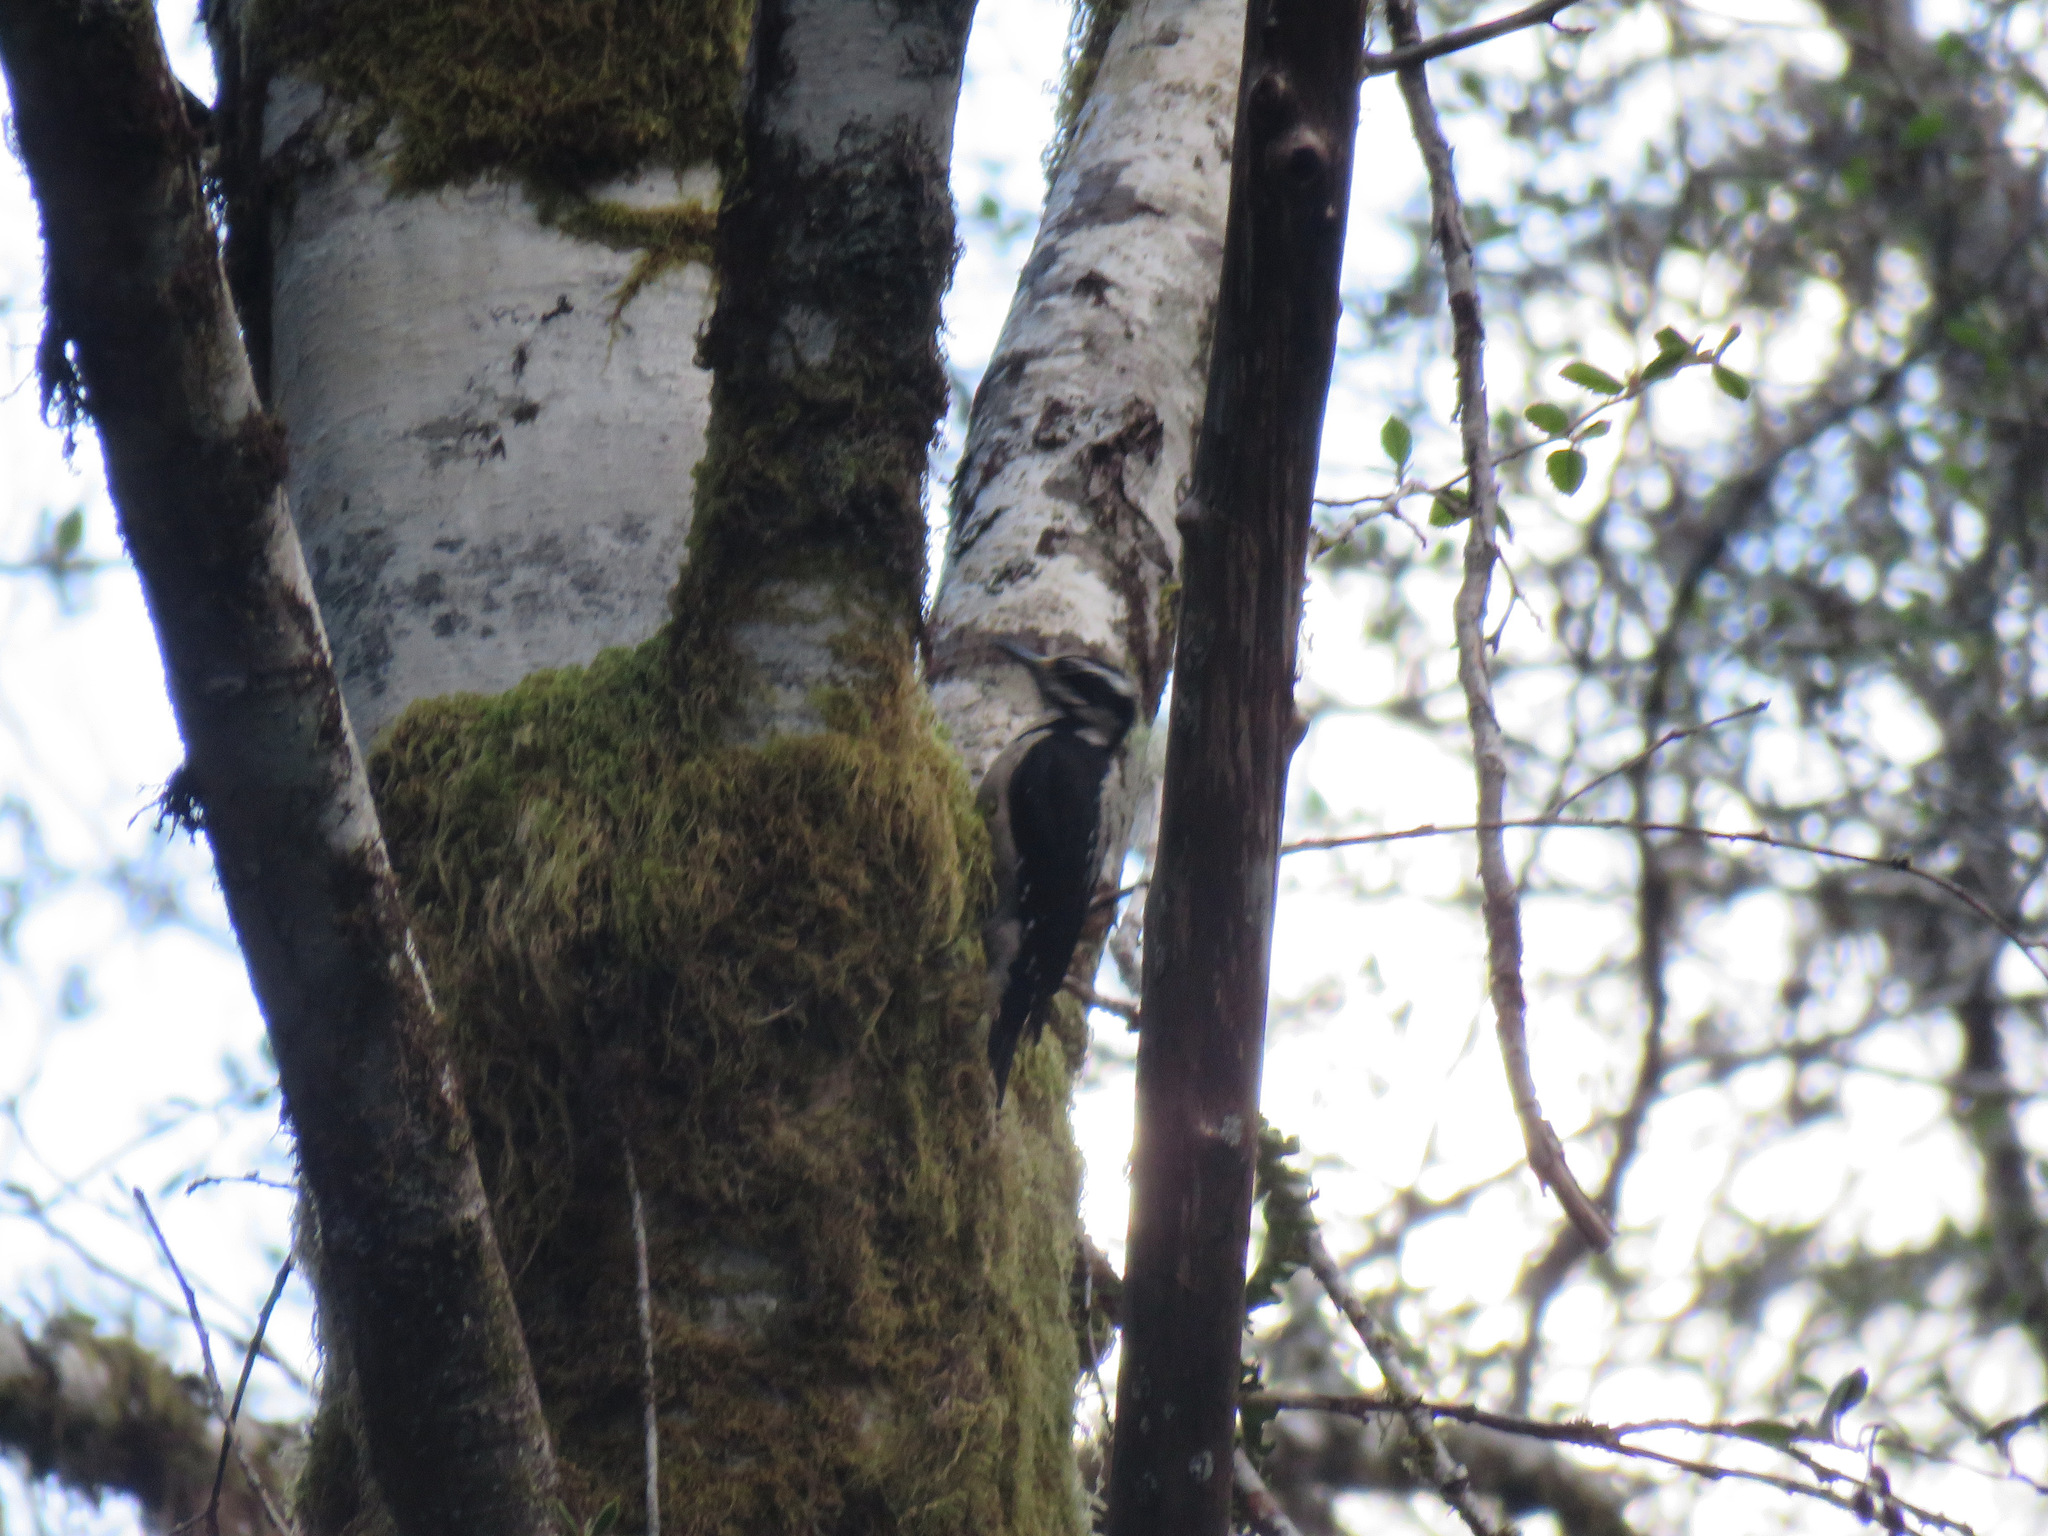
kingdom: Animalia
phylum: Chordata
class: Aves
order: Piciformes
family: Picidae
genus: Leuconotopicus
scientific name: Leuconotopicus villosus
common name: Hairy woodpecker
